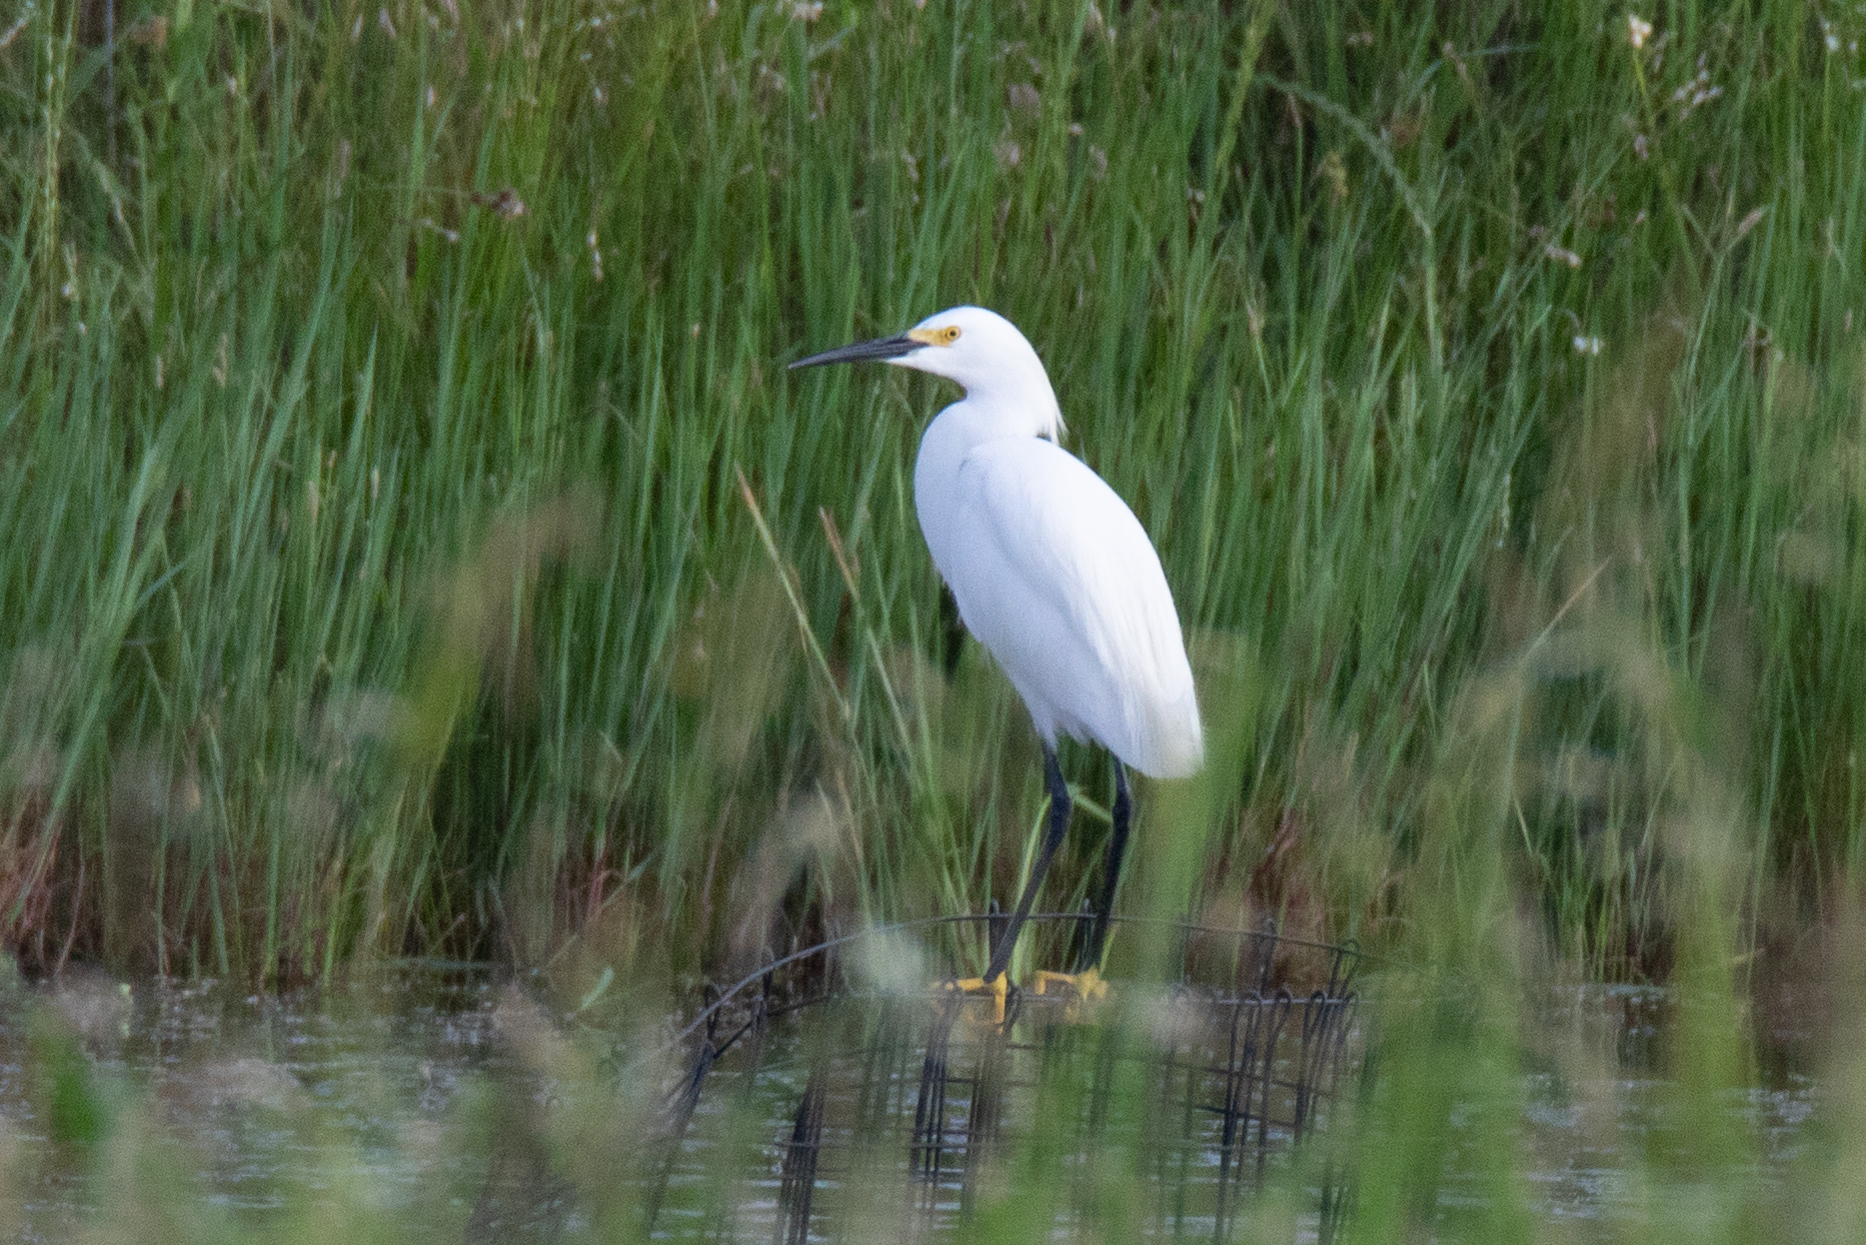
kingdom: Animalia
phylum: Chordata
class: Aves
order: Pelecaniformes
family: Ardeidae
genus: Egretta
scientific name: Egretta thula
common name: Snowy egret
